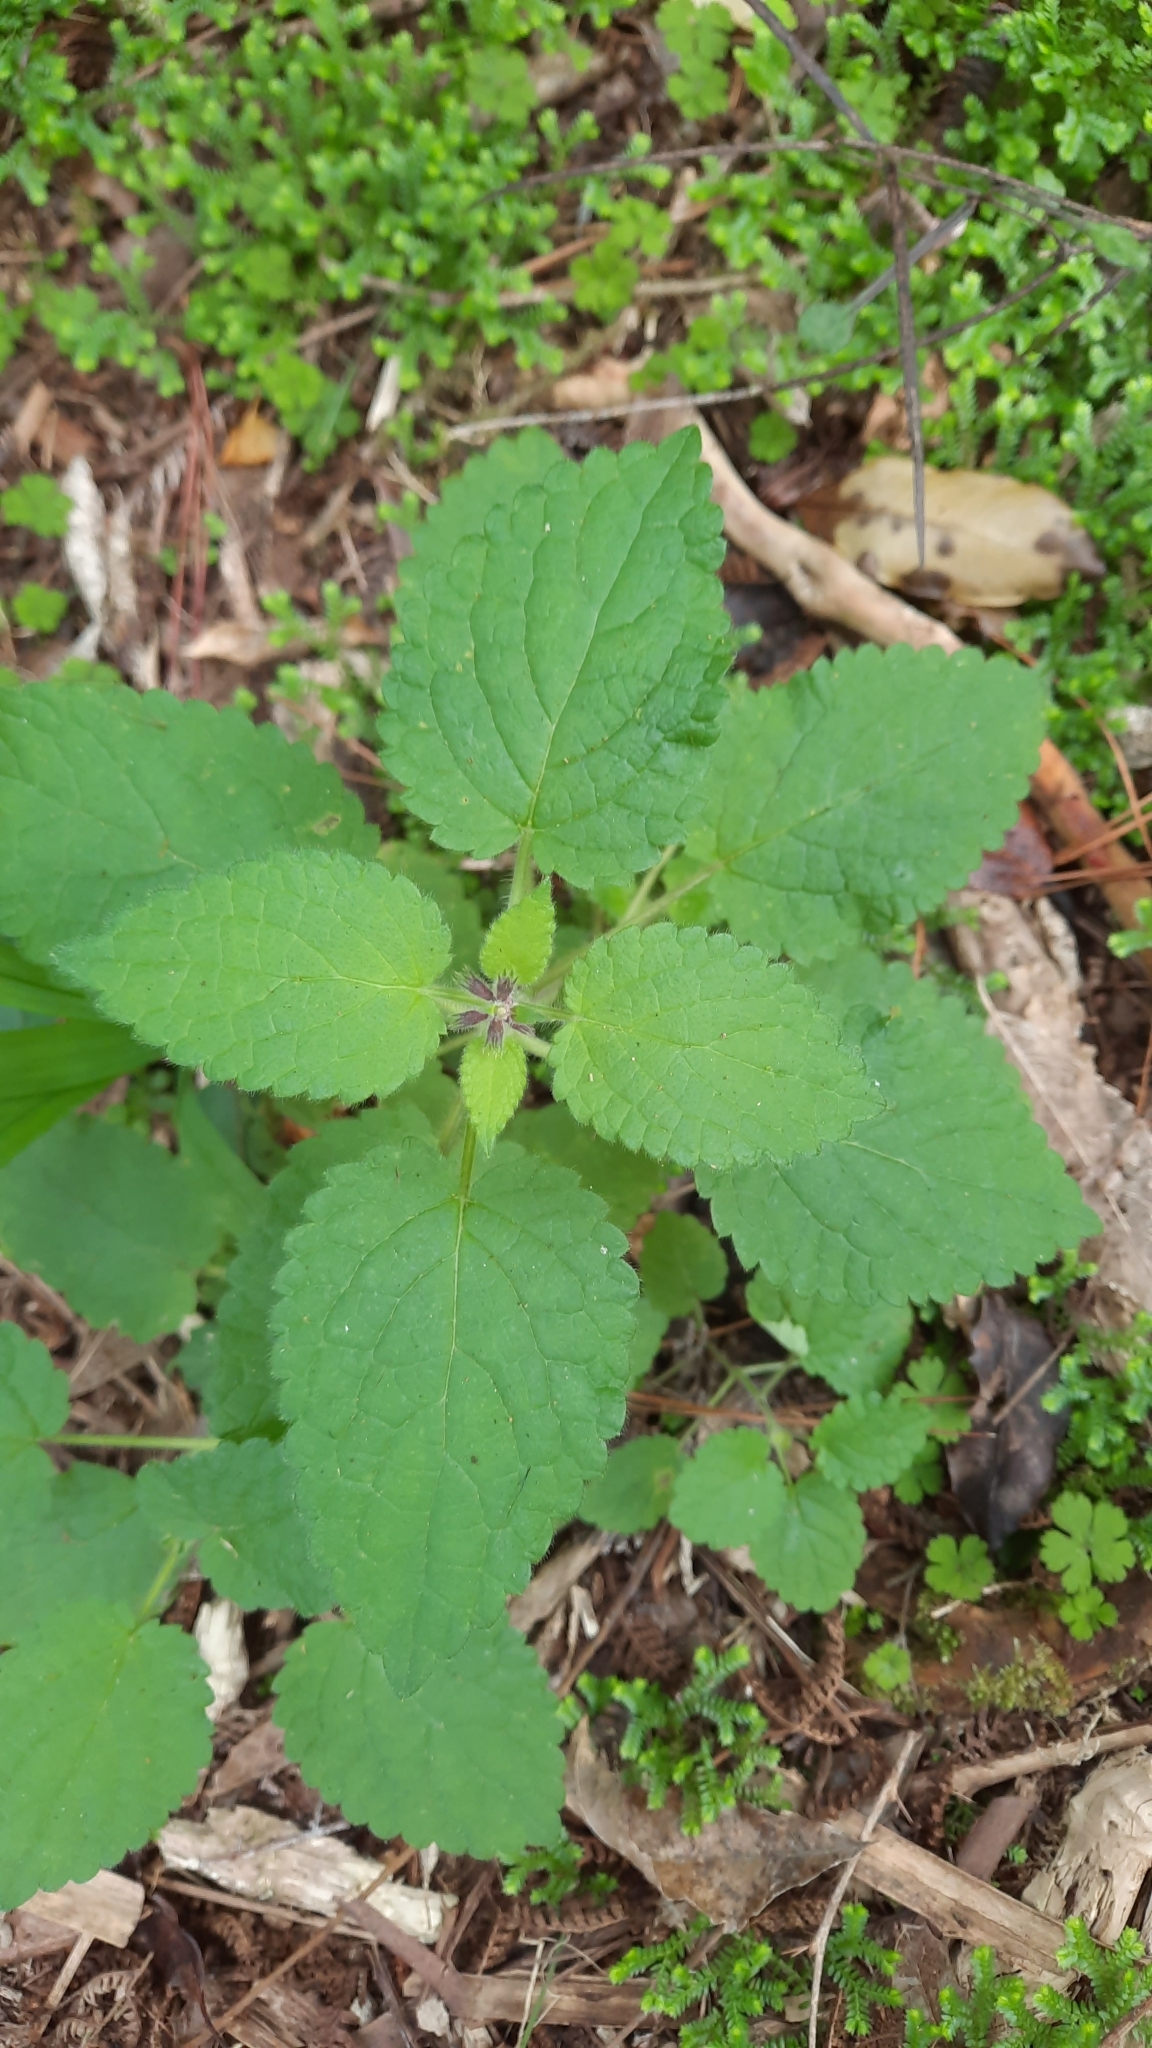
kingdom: Plantae
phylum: Tracheophyta
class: Magnoliopsida
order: Lamiales
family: Lamiaceae
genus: Stachys
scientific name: Stachys sylvatica
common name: Hedge woundwort
